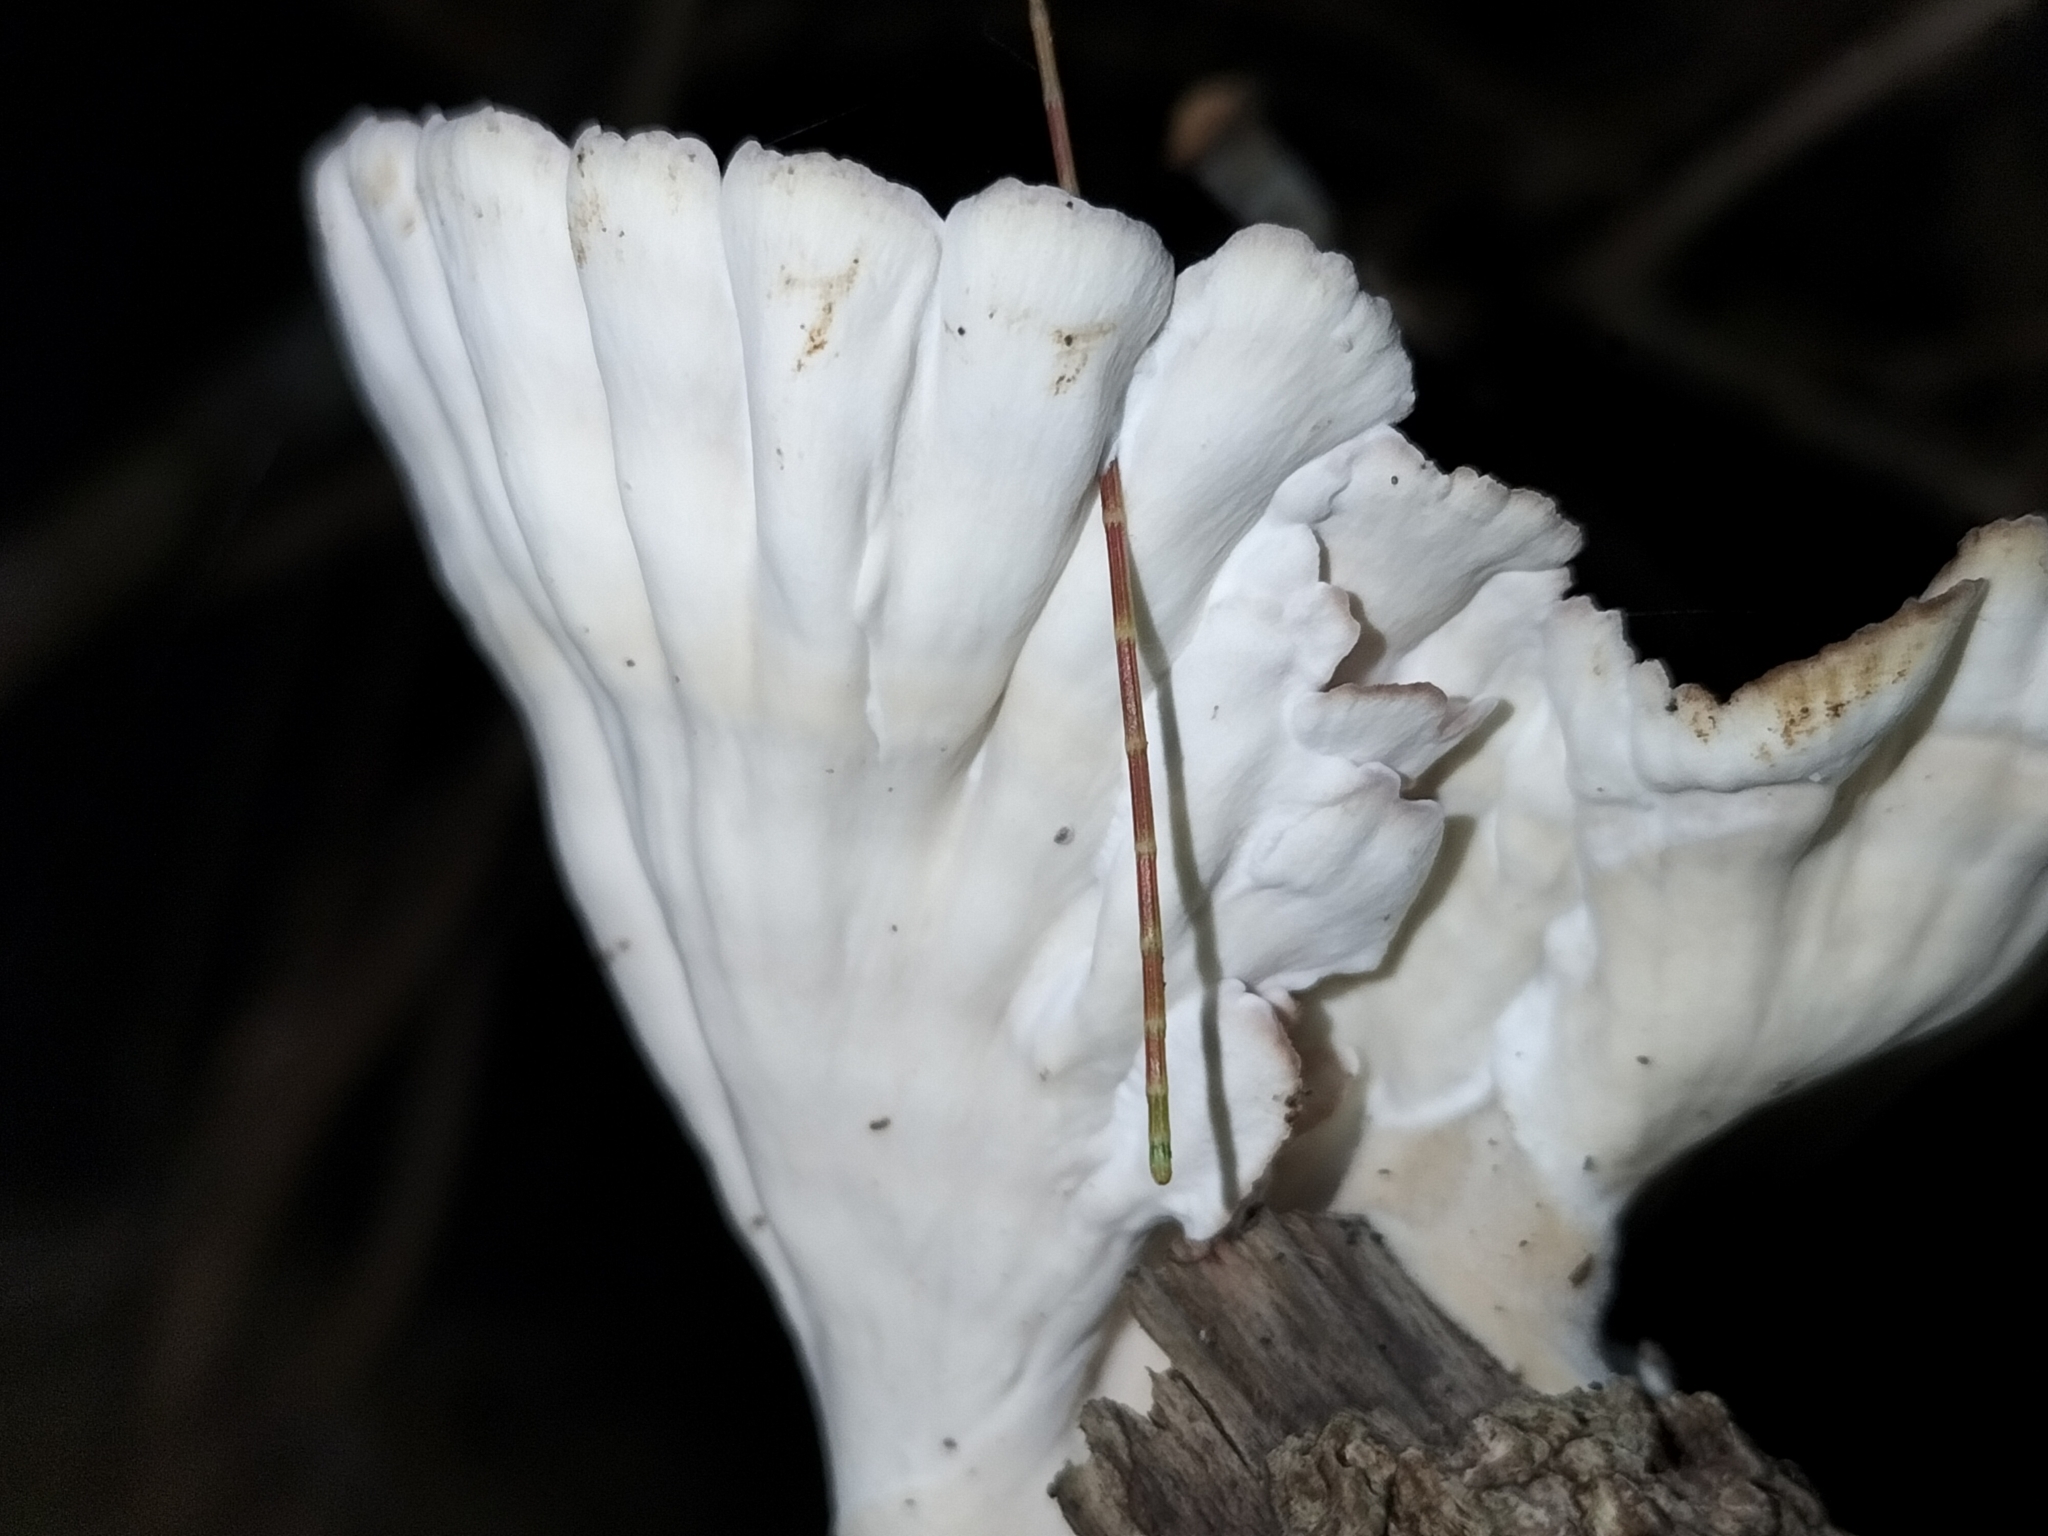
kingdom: Fungi
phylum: Basidiomycota
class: Agaricomycetes
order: Polyporales
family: Panaceae
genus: Cymatoderma
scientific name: Cymatoderma elegans
